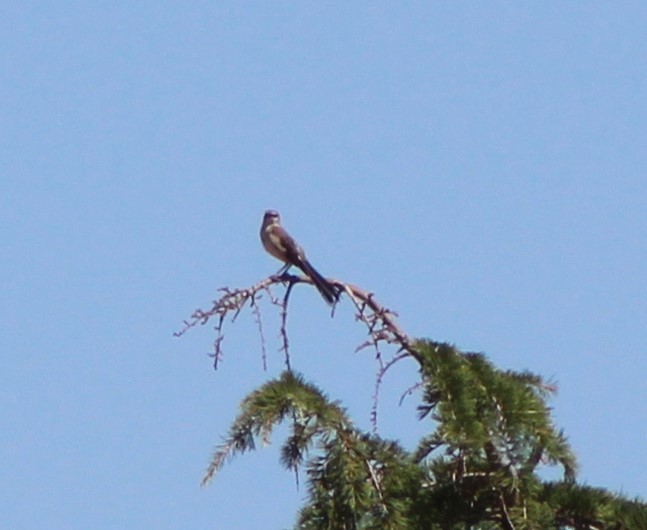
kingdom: Animalia
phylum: Chordata
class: Aves
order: Falconiformes
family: Falconidae
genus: Falco
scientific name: Falco sparverius
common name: American kestrel
